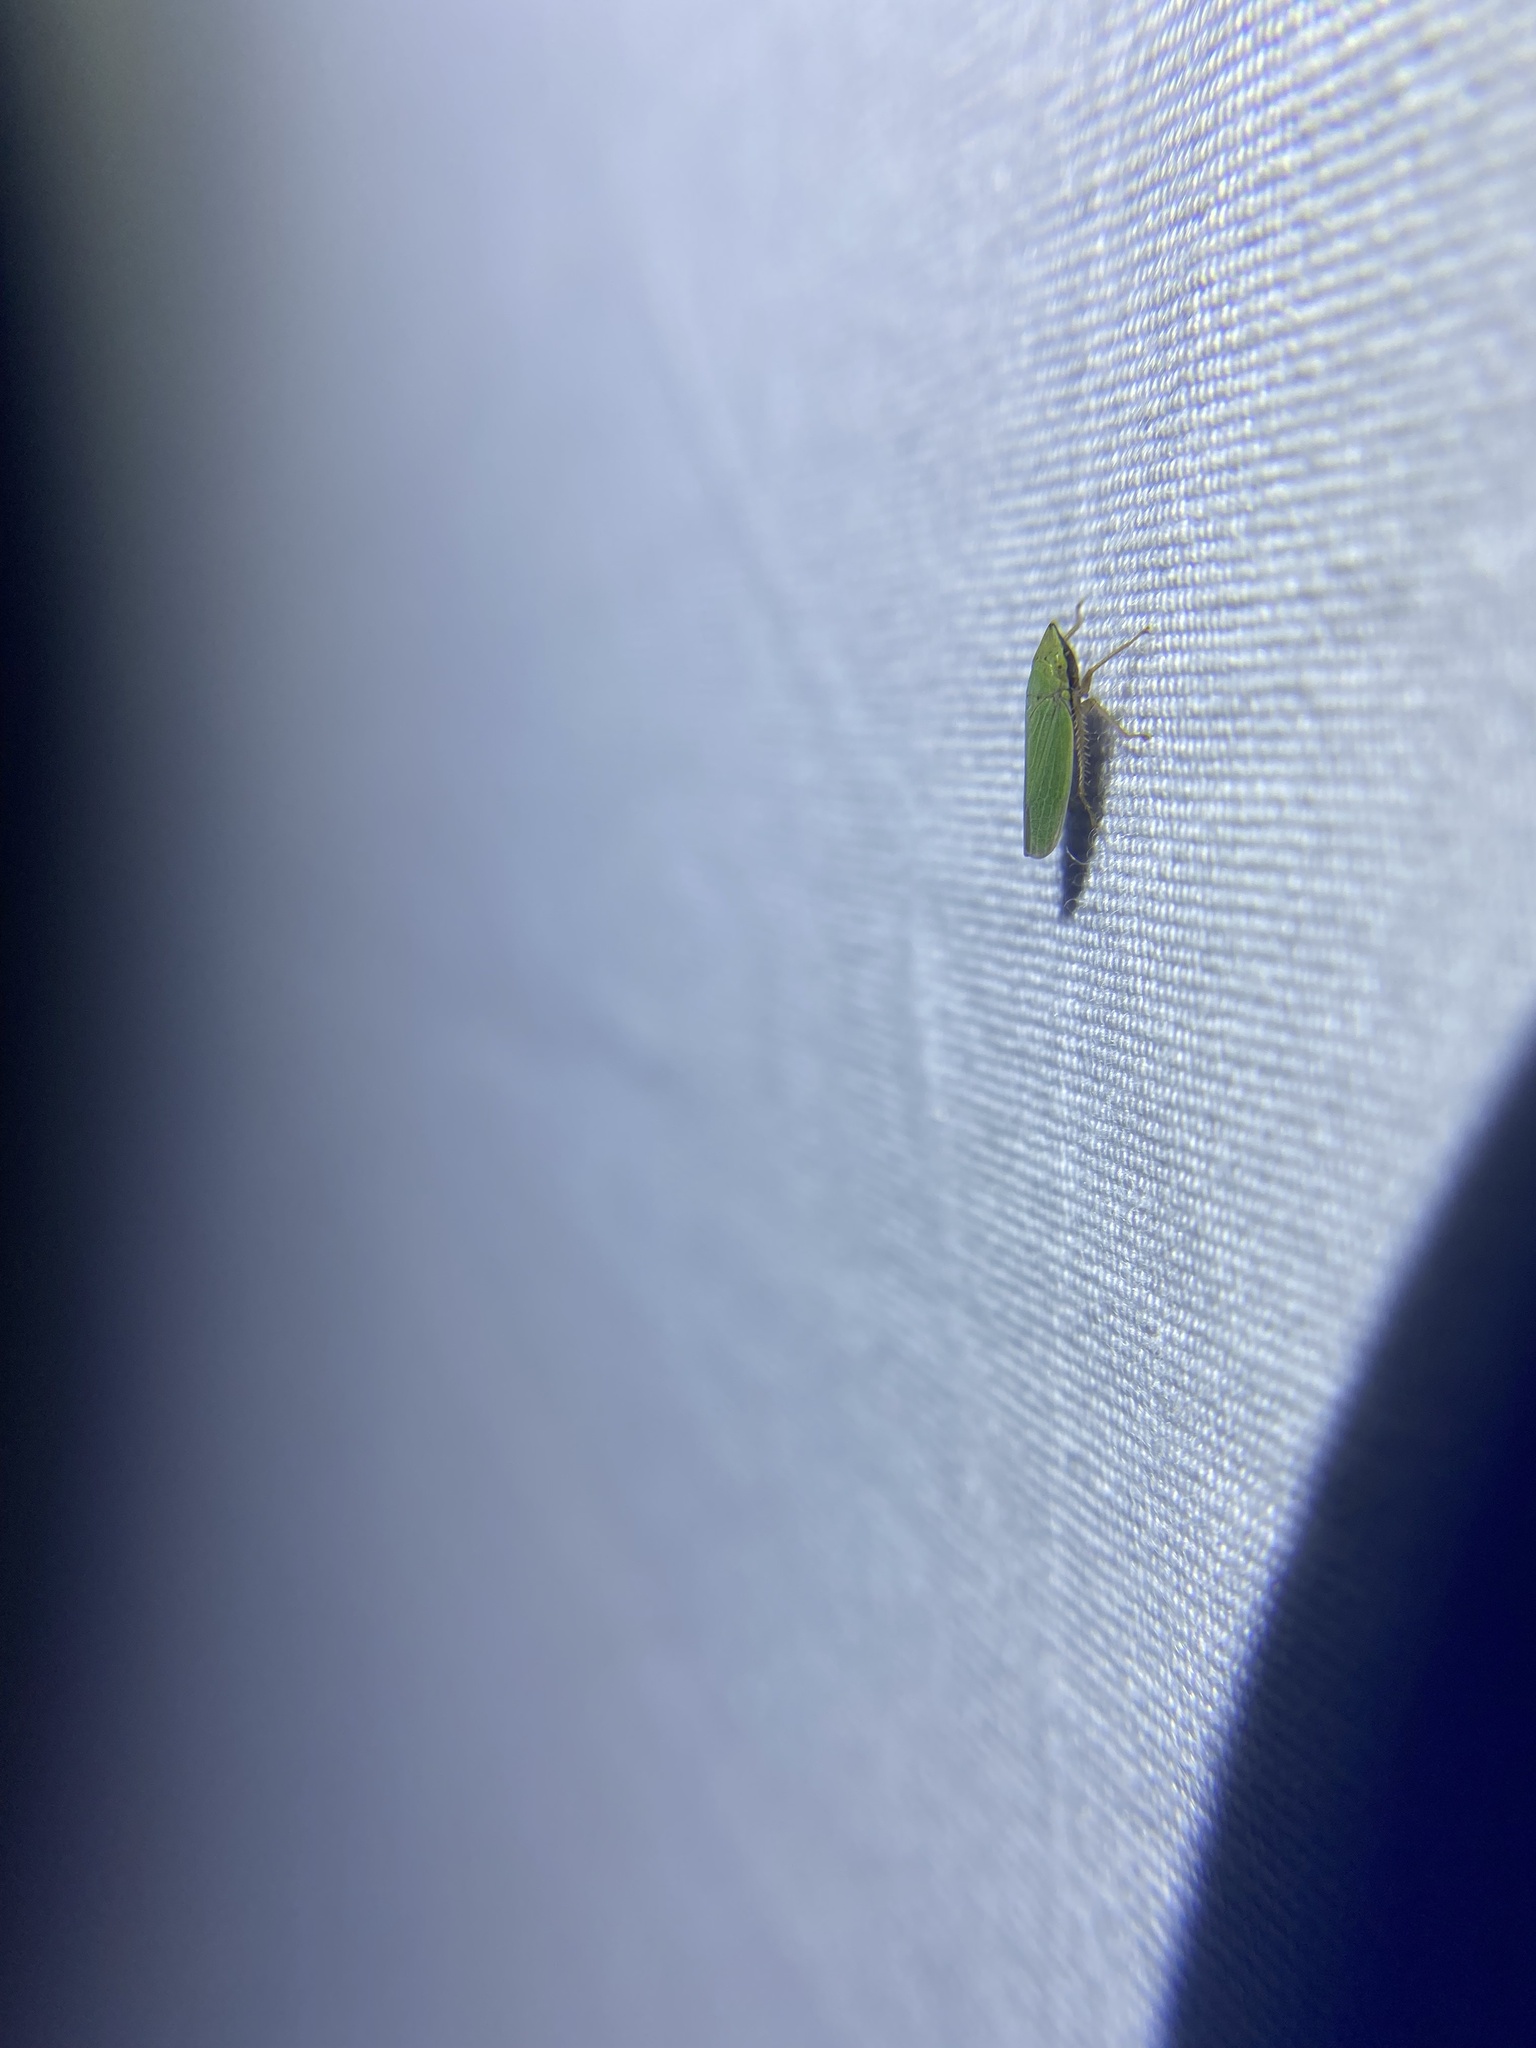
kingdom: Animalia
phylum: Arthropoda
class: Insecta
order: Hemiptera
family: Cicadellidae
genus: Draeculacephala
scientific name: Draeculacephala balli
